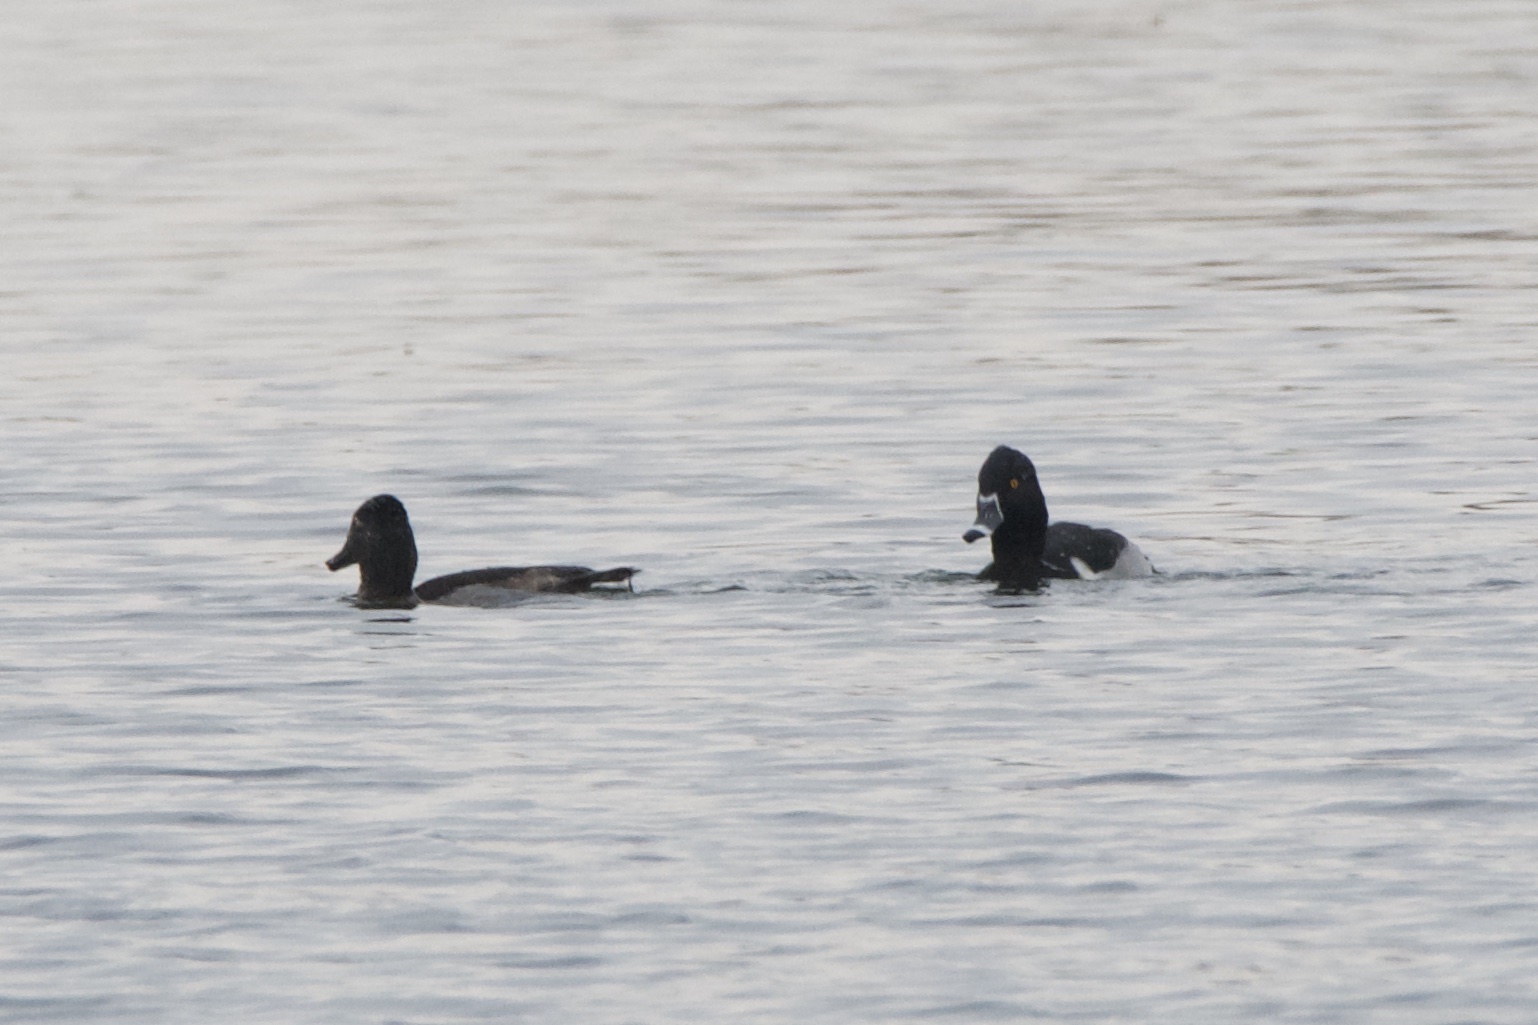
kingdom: Animalia
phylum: Chordata
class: Aves
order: Anseriformes
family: Anatidae
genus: Aythya
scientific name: Aythya collaris
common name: Ring-necked duck
